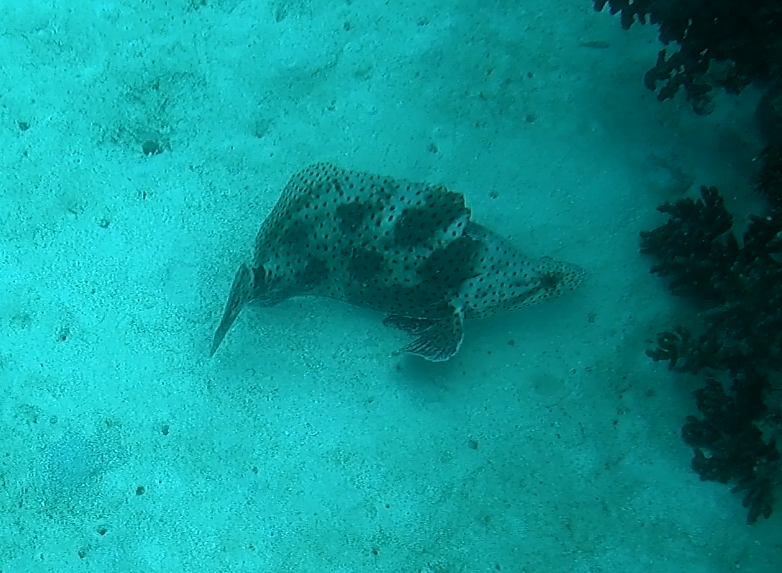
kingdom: Animalia
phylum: Chordata
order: Perciformes
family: Serranidae
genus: Cromileptes
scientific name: Cromileptes altivelis
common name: Humpback grouper
